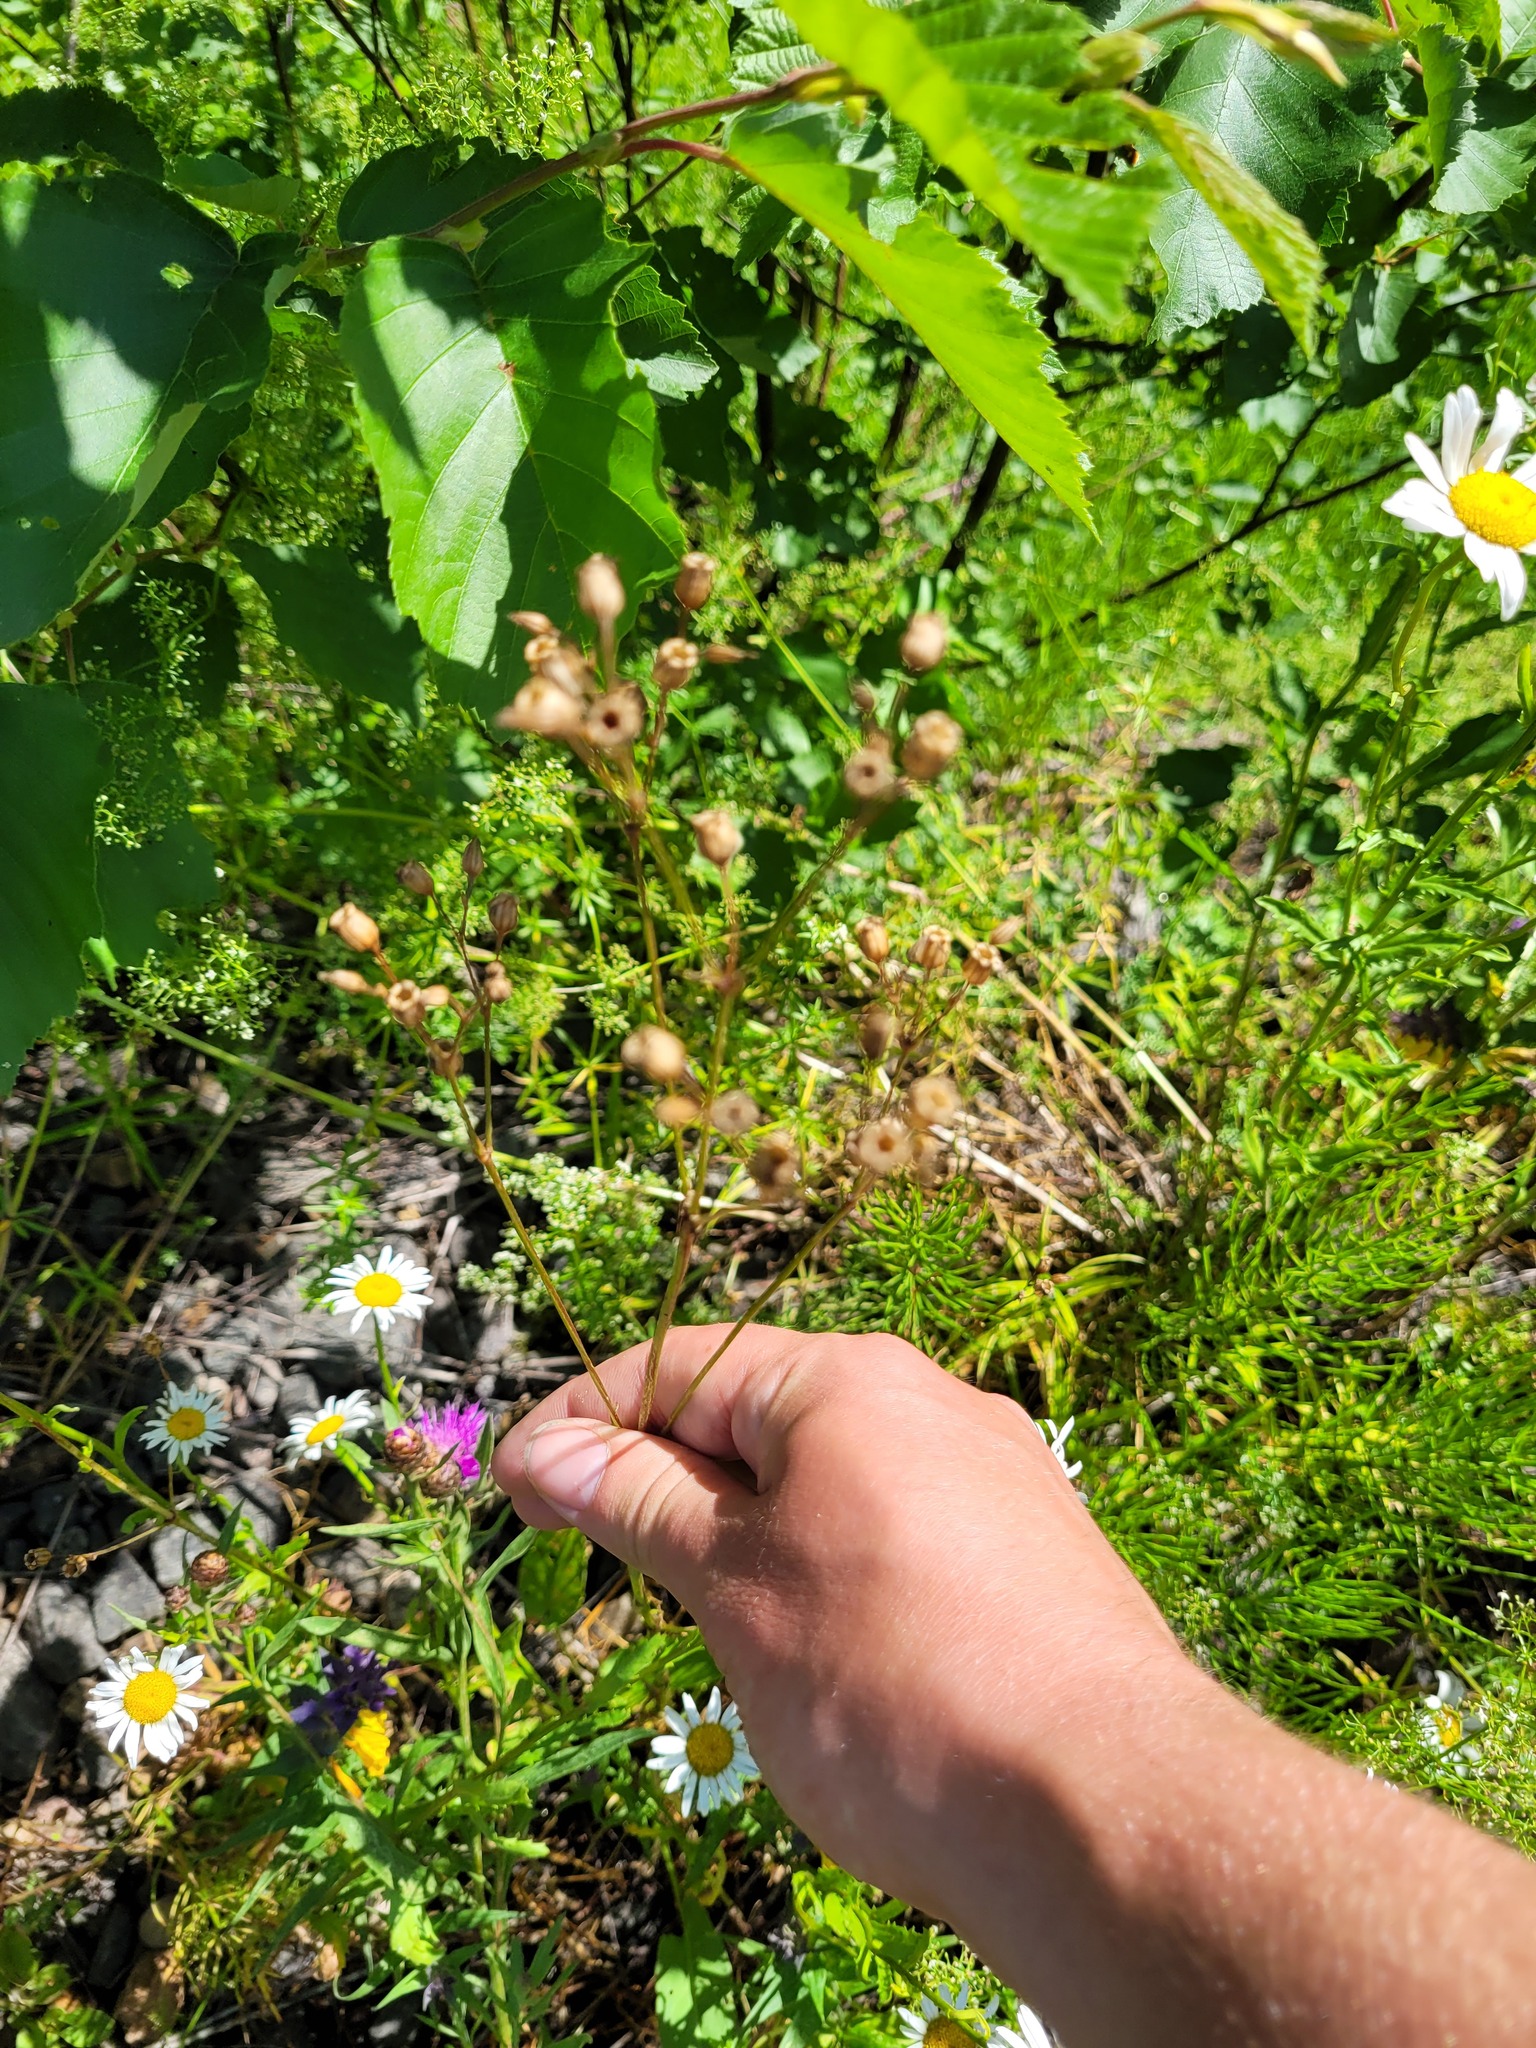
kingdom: Plantae
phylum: Tracheophyta
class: Magnoliopsida
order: Caryophyllales
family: Caryophyllaceae
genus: Silene
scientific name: Silene flos-cuculi
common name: Ragged-robin
